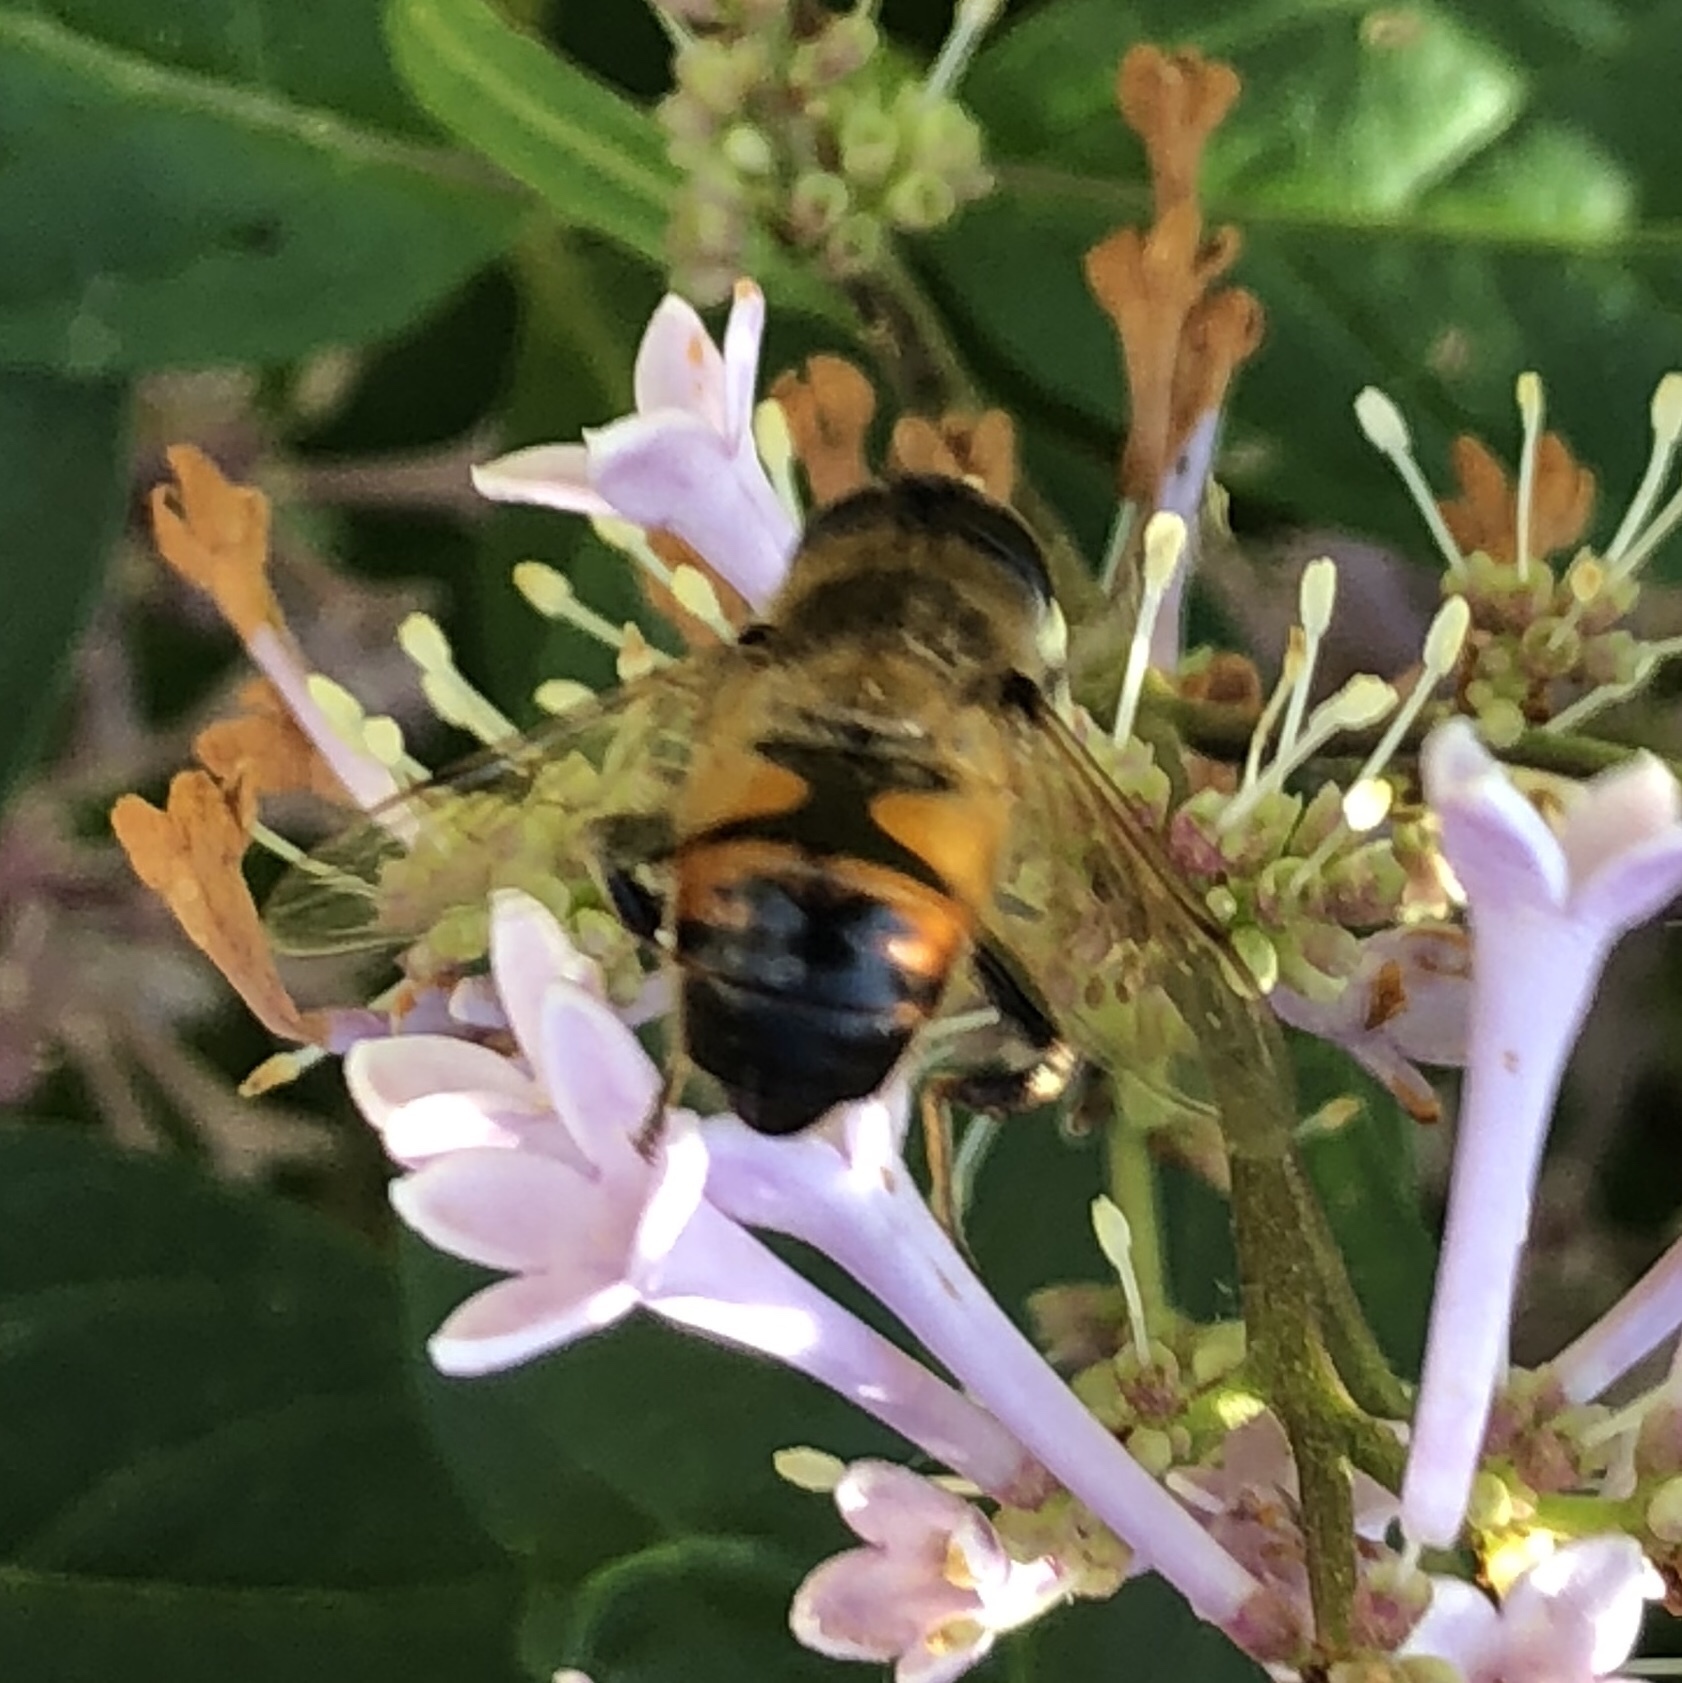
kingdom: Animalia
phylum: Arthropoda
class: Insecta
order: Diptera
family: Syrphidae
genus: Eristalis
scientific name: Eristalis tenax
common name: Drone fly
